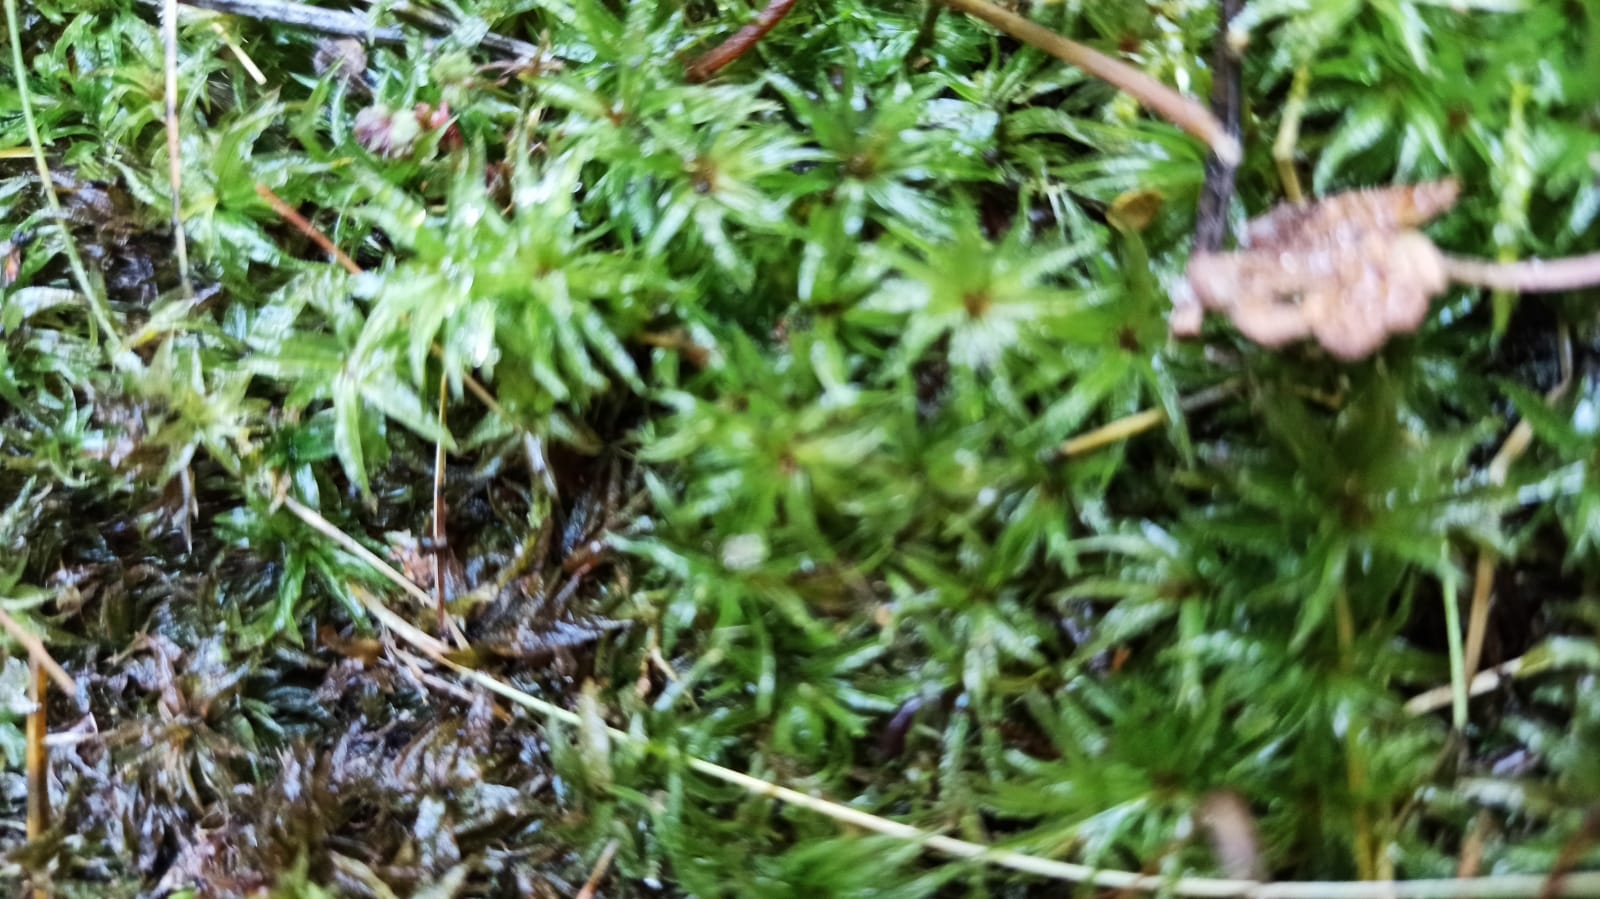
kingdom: Plantae
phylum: Bryophyta
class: Polytrichopsida
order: Polytrichales
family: Polytrichaceae
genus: Atrichum
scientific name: Atrichum undulatum
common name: Common smoothcap
